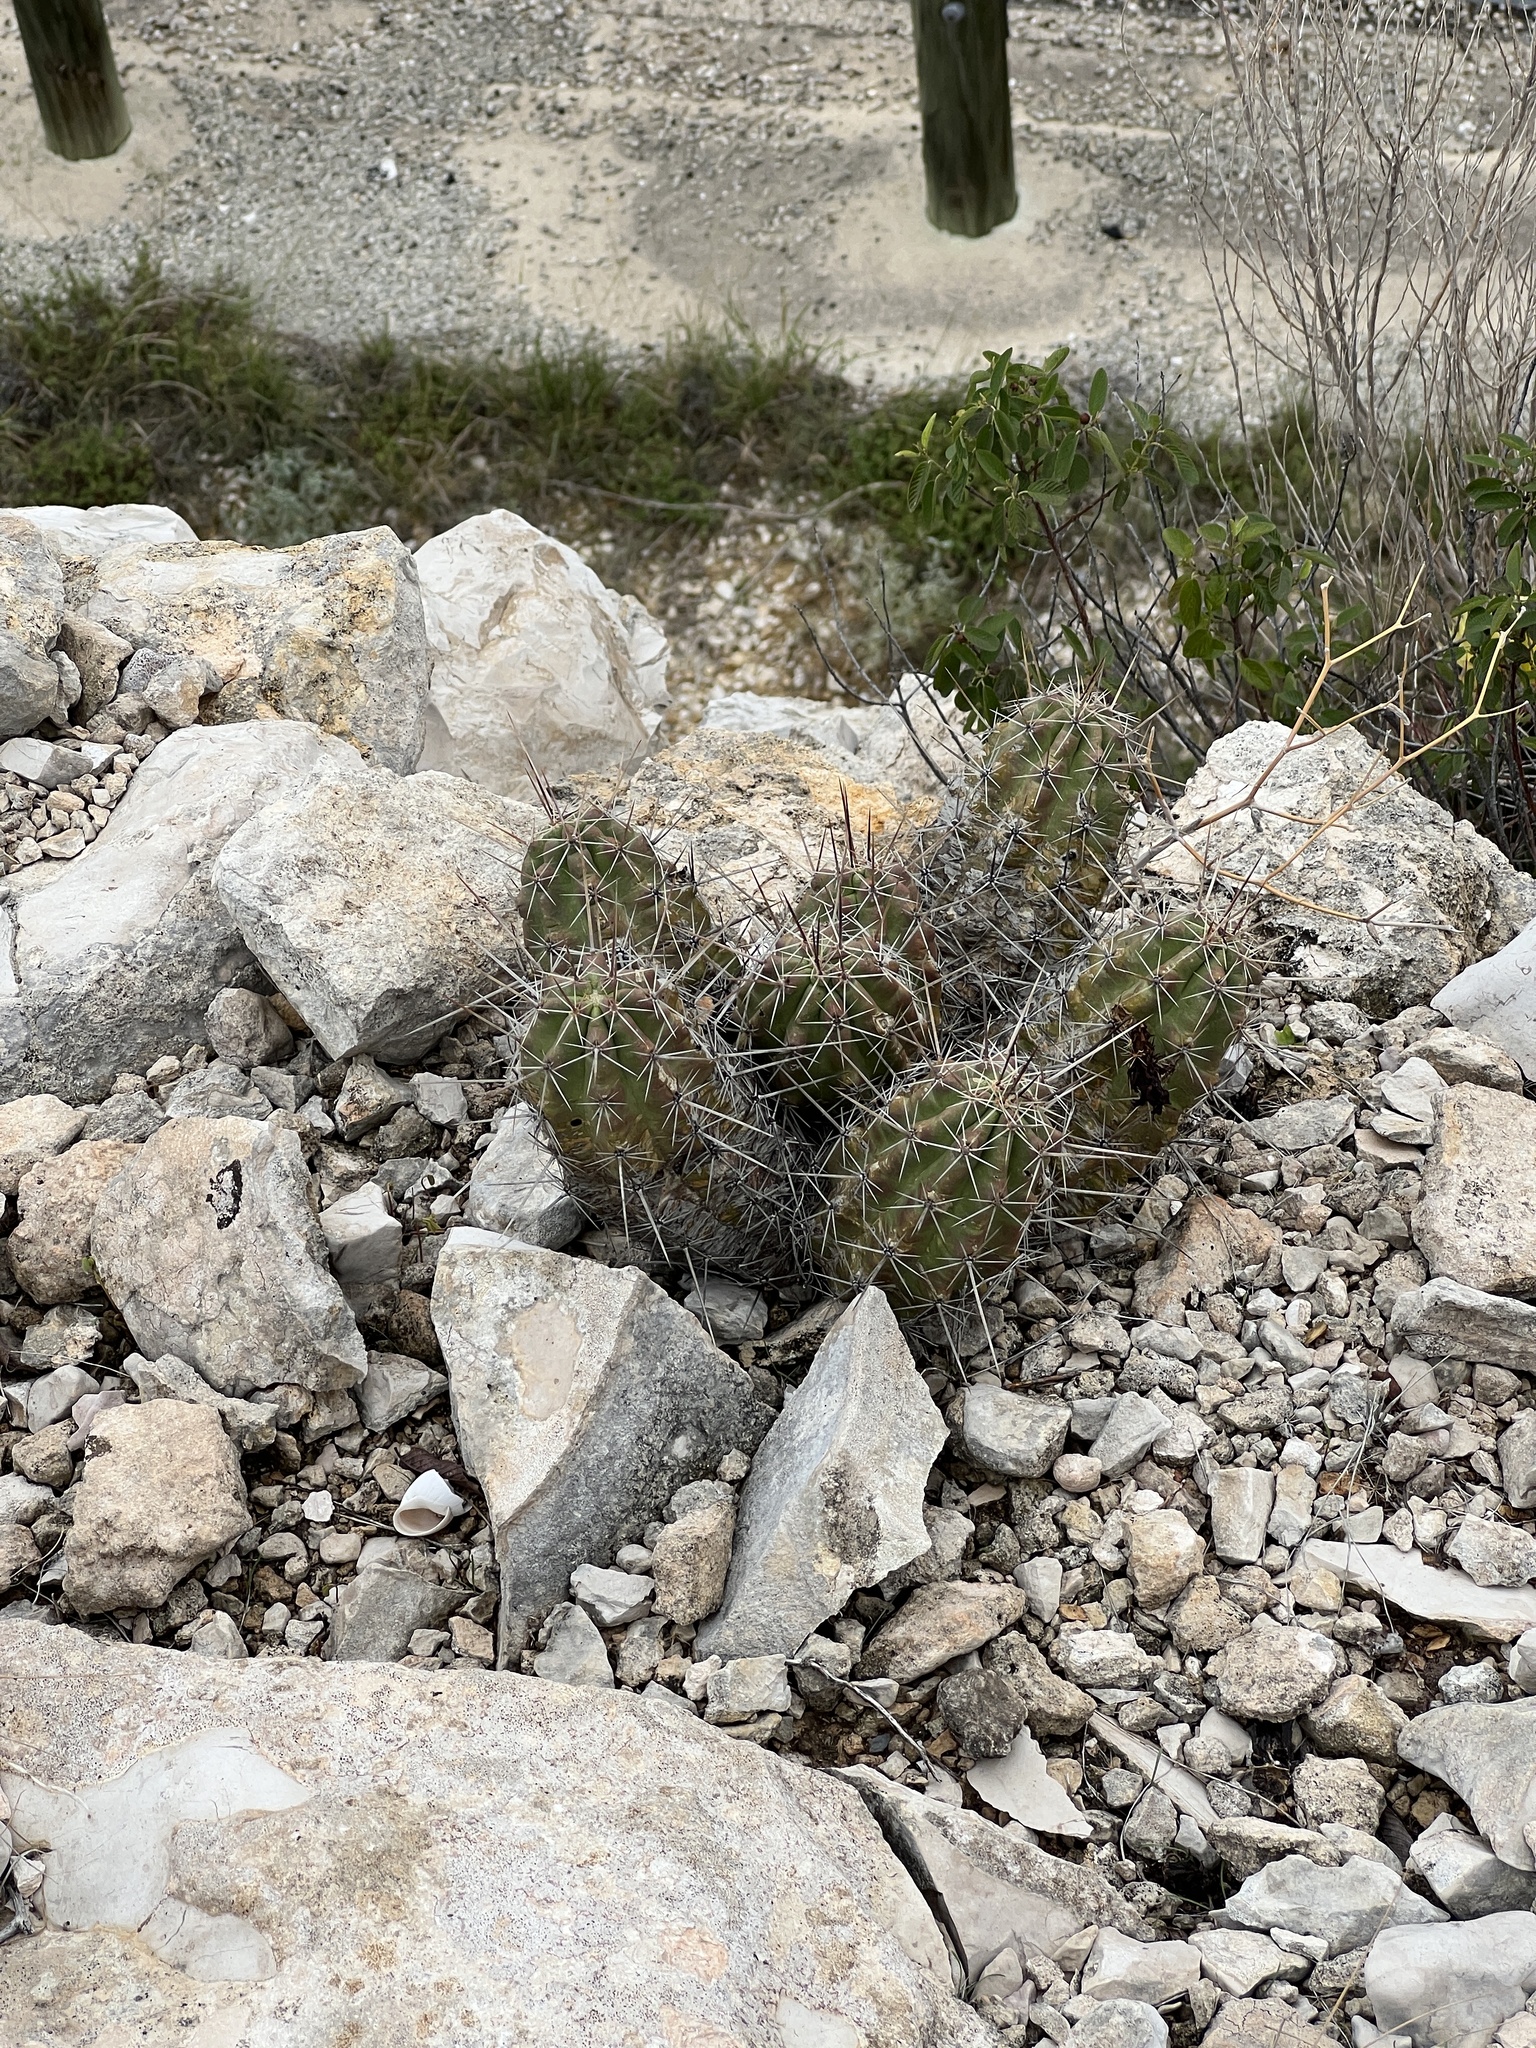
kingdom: Plantae
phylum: Tracheophyta
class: Magnoliopsida
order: Caryophyllales
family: Cactaceae
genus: Echinocereus
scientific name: Echinocereus enneacanthus
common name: Pitaya
